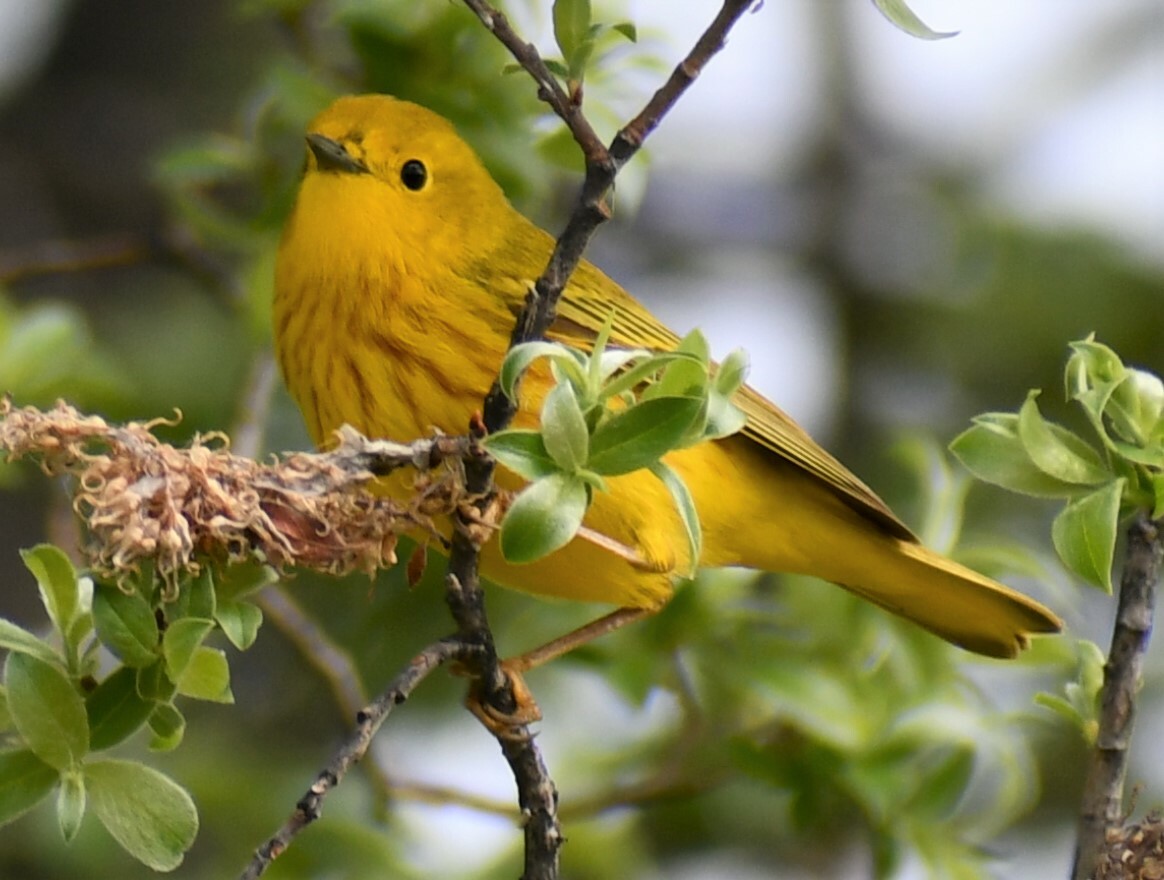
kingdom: Animalia
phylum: Chordata
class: Aves
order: Passeriformes
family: Parulidae
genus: Setophaga
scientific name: Setophaga petechia
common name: Yellow warbler
